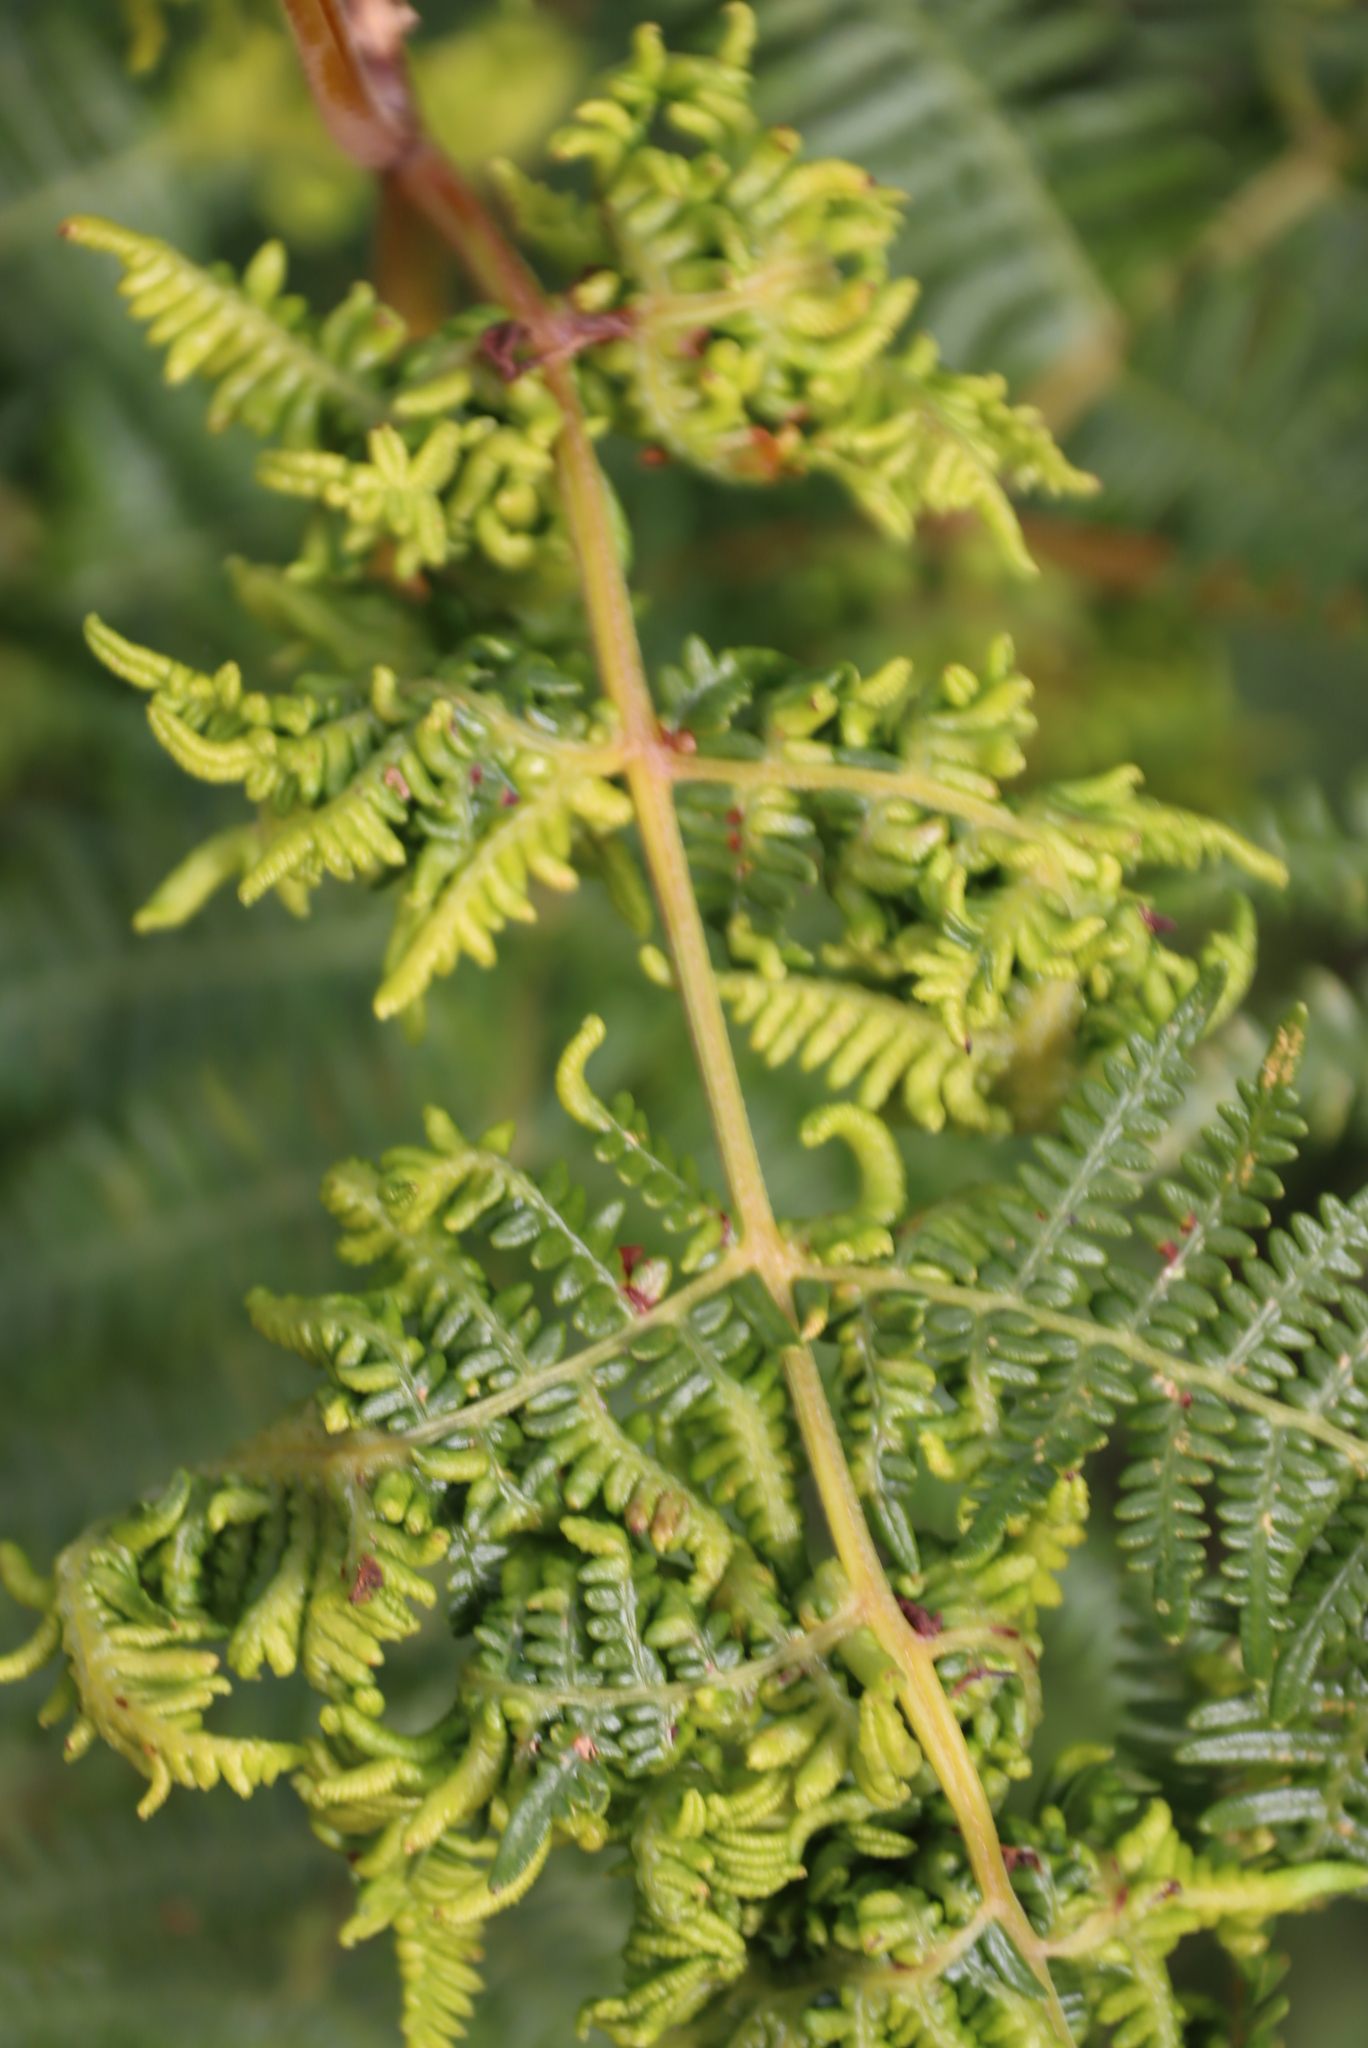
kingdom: Plantae
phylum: Tracheophyta
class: Polypodiopsida
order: Polypodiales
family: Dennstaedtiaceae
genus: Pteridium
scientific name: Pteridium aquilinum
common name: Bracken
